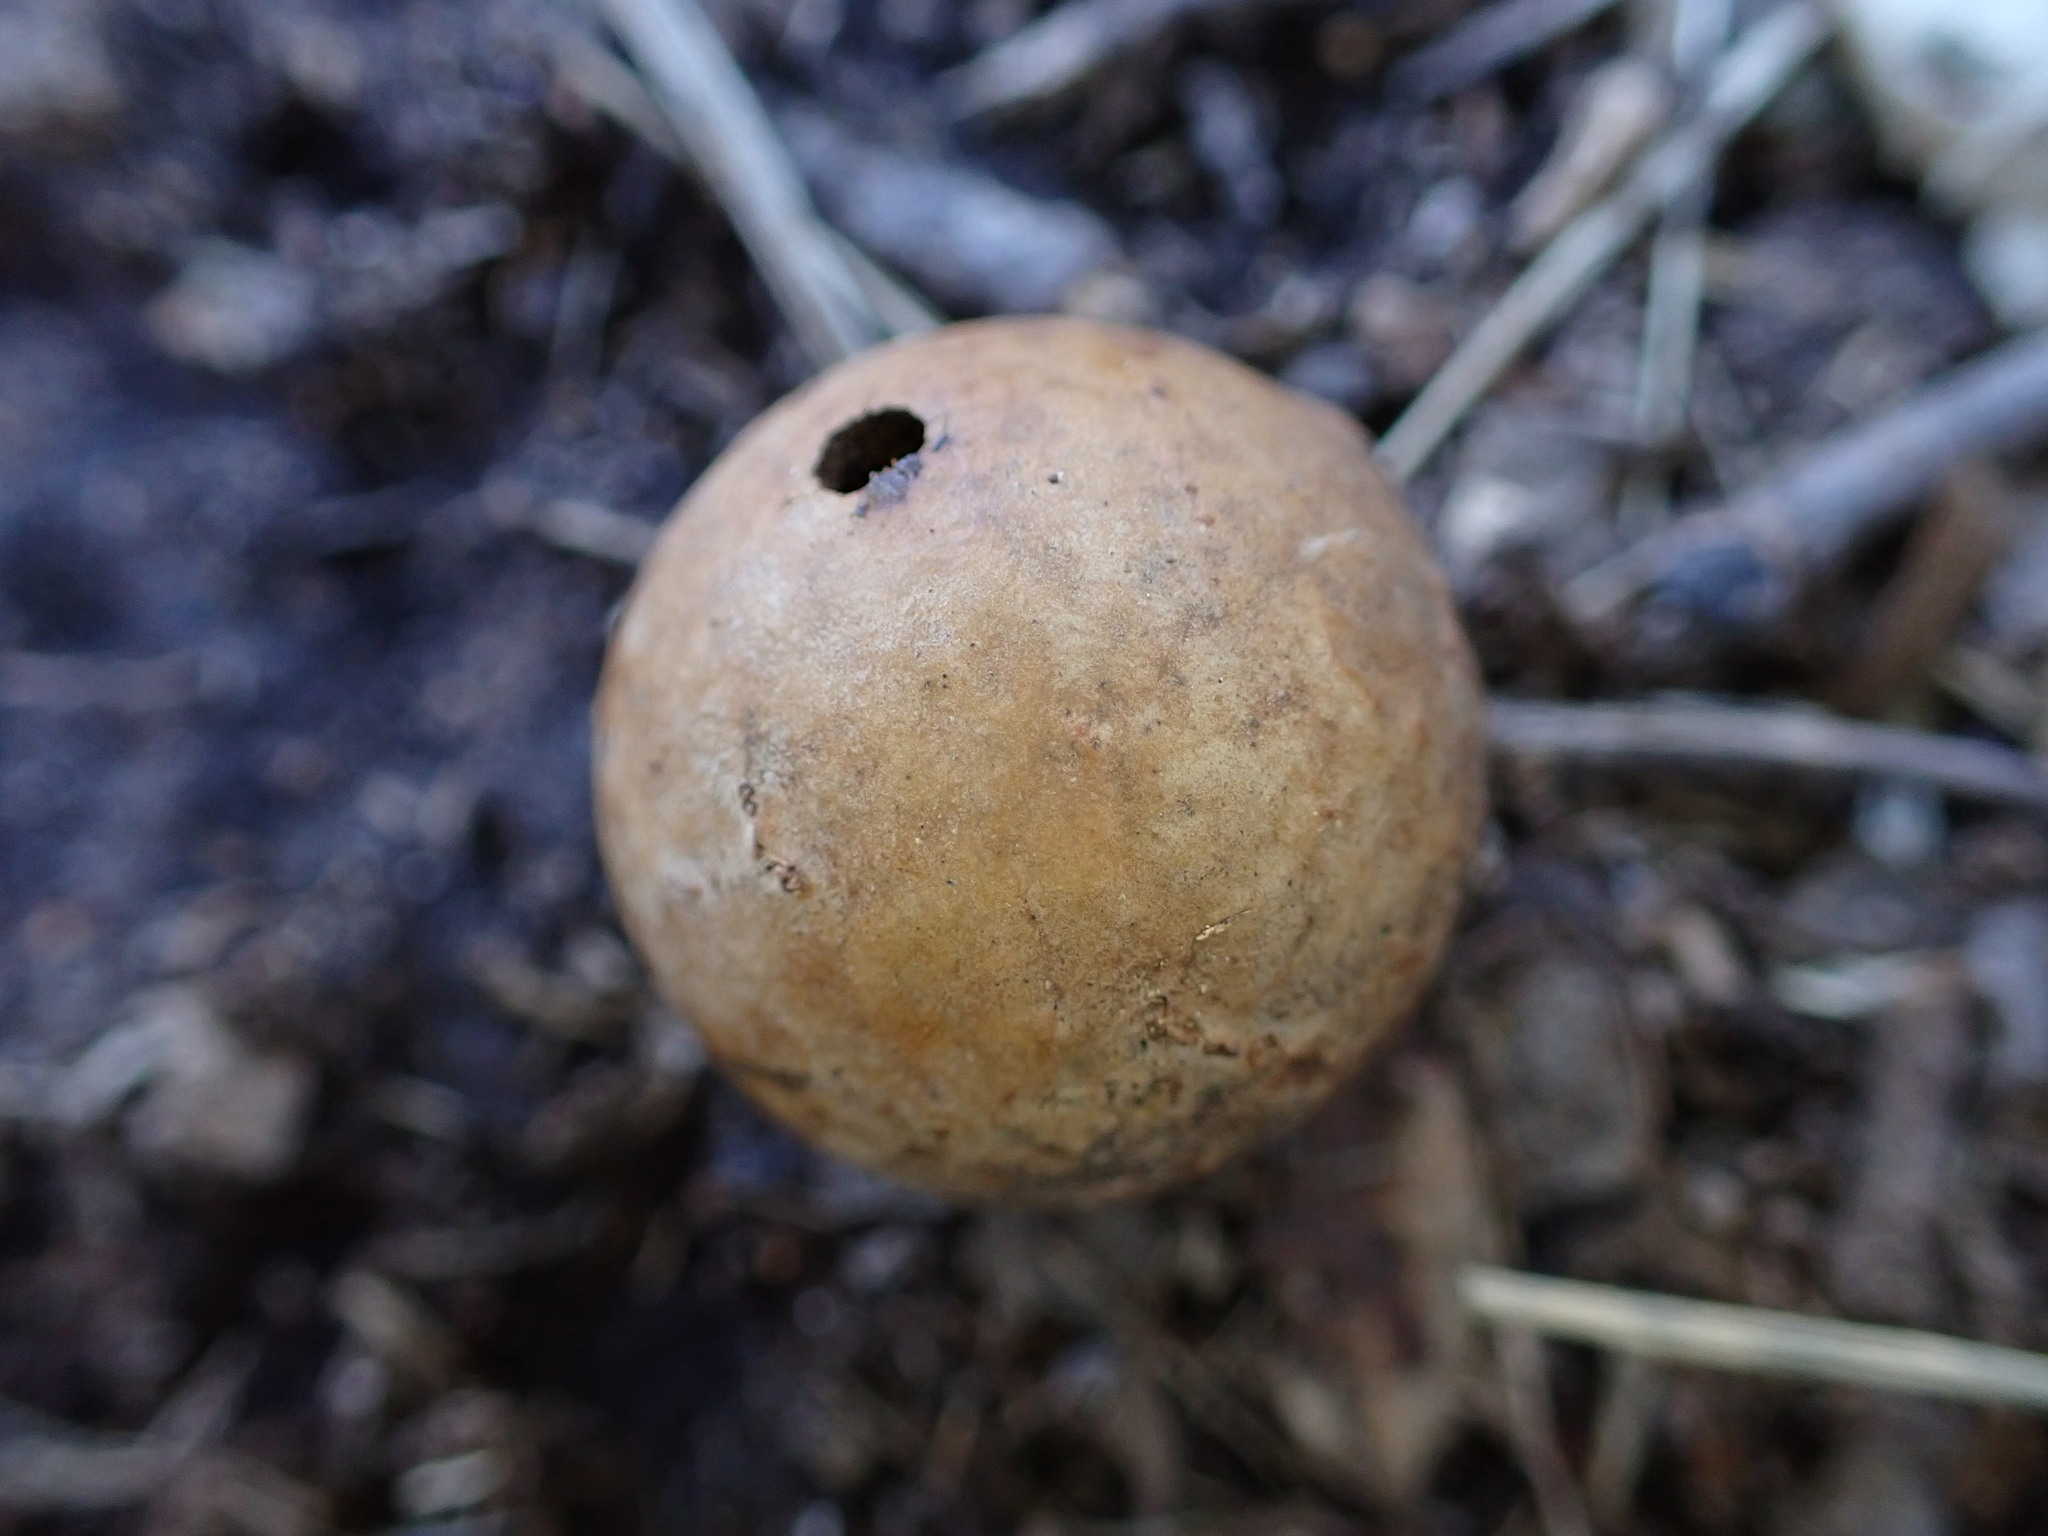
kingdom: Animalia
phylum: Arthropoda
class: Insecta
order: Hymenoptera
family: Cynipidae
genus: Andricus
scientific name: Andricus kollari
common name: Marble gall
